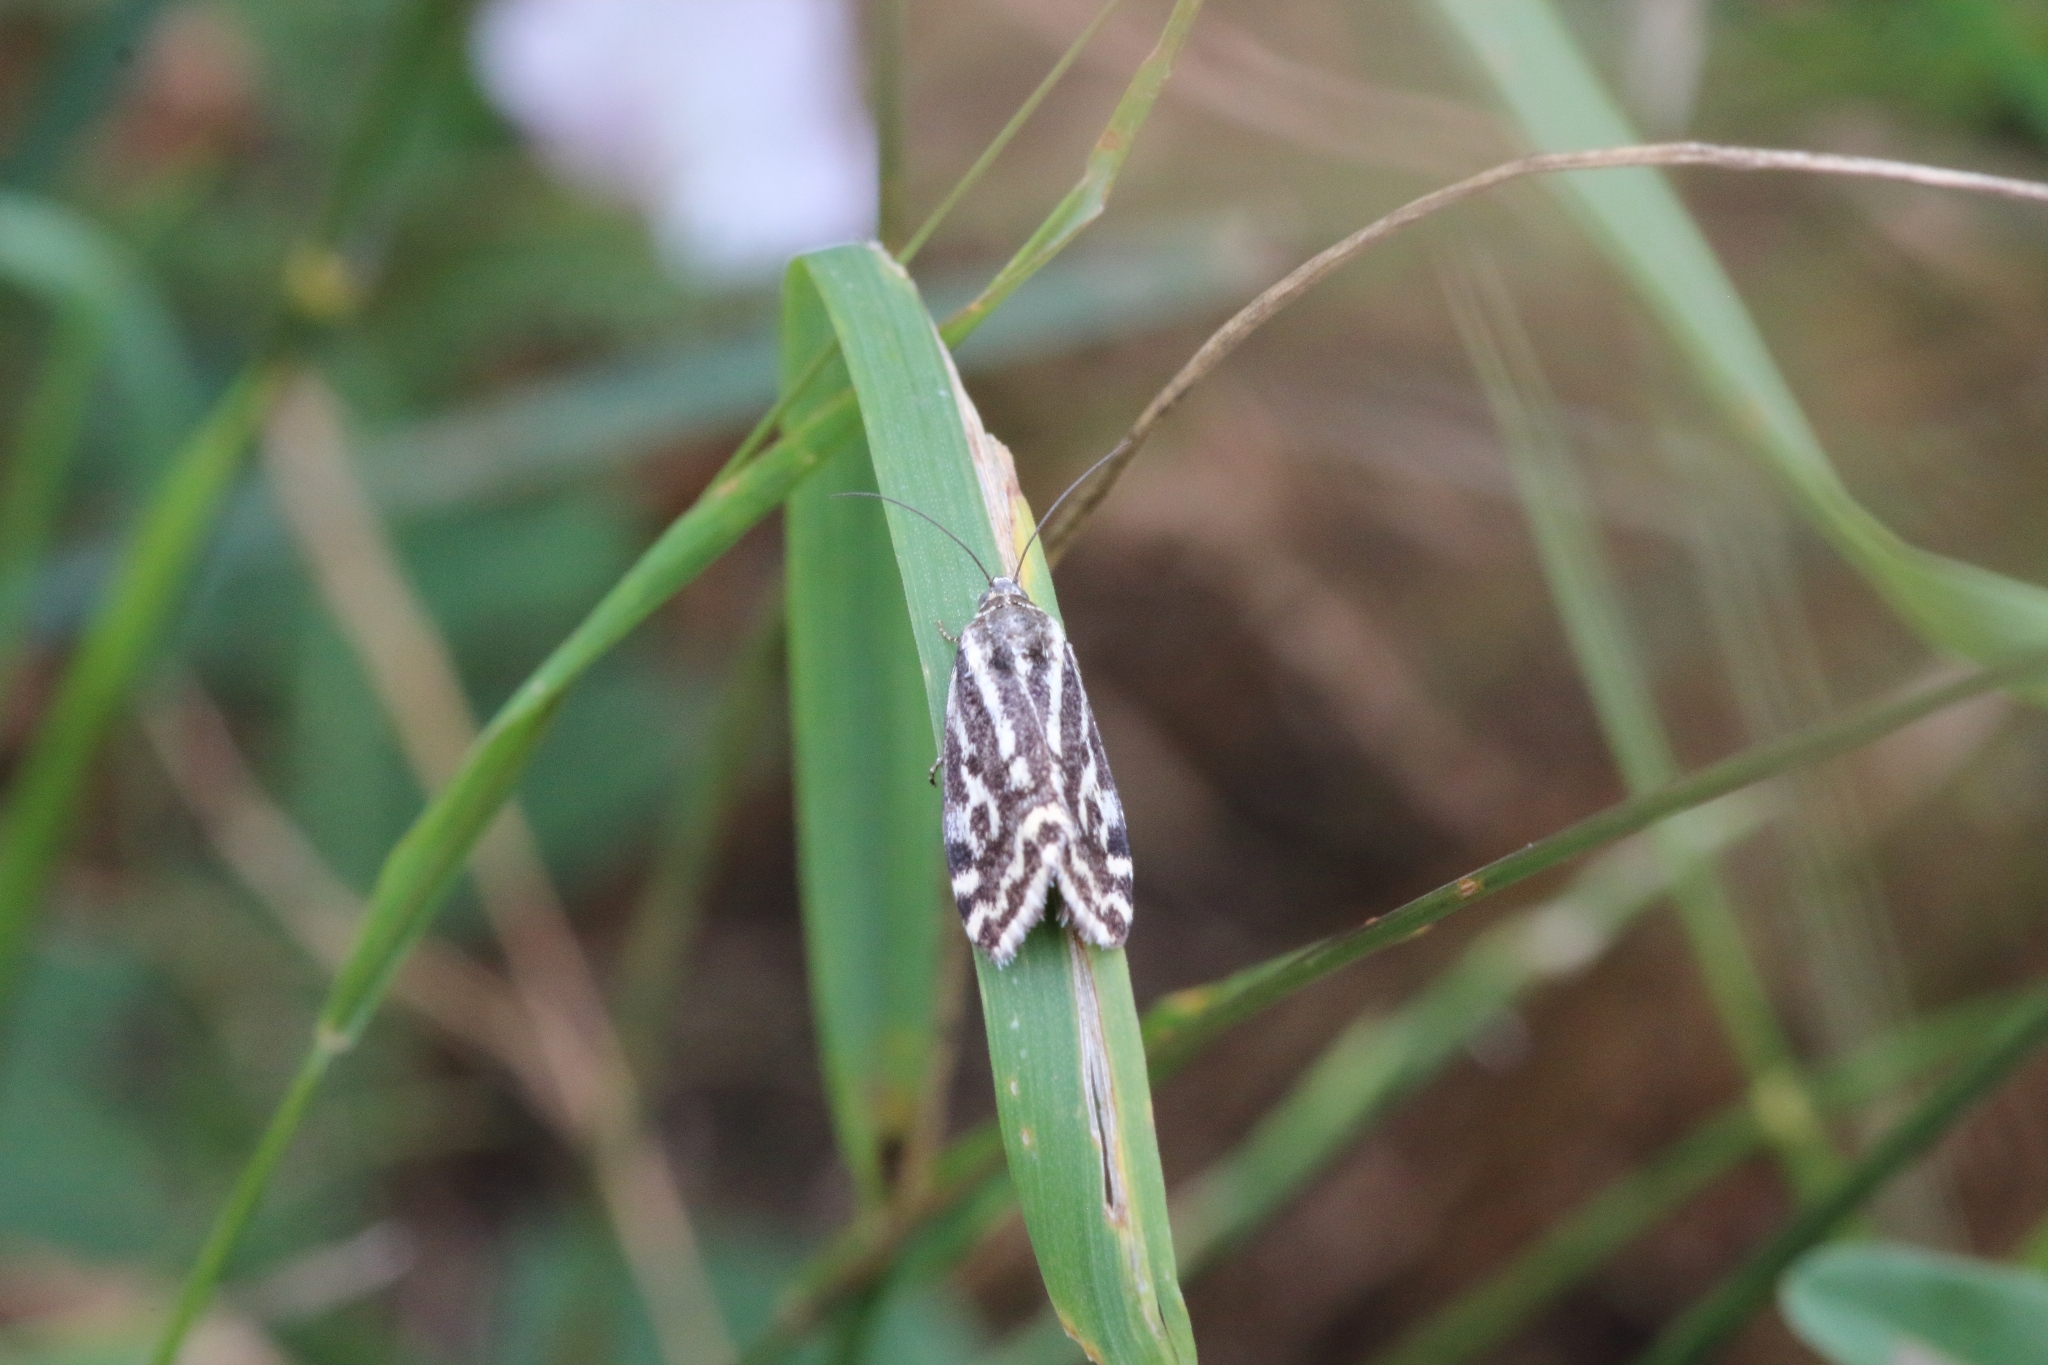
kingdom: Animalia
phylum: Arthropoda
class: Insecta
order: Lepidoptera
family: Noctuidae
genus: Acontia
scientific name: Acontia trabealis
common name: Spotted sulphur
